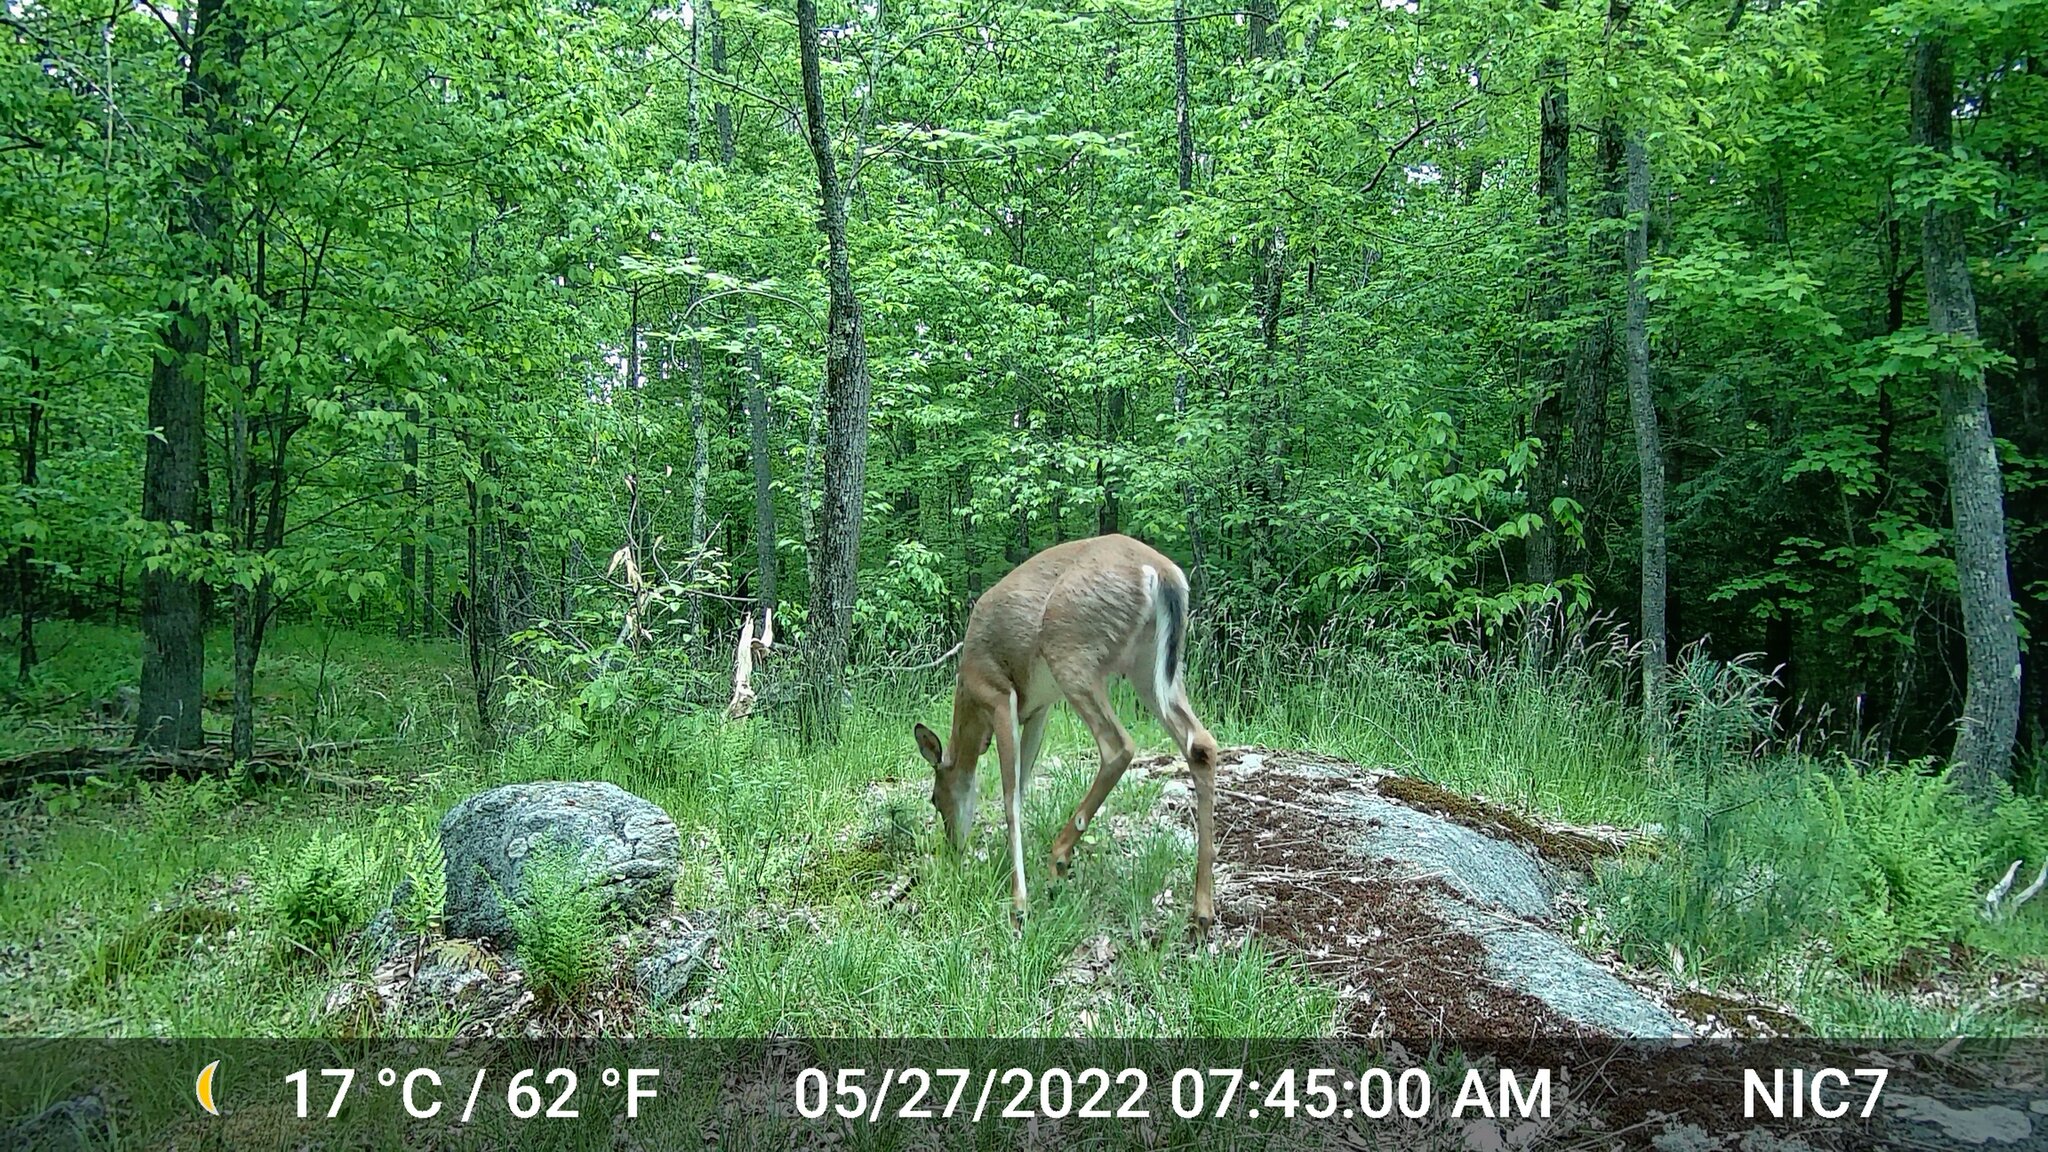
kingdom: Animalia
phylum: Chordata
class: Mammalia
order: Artiodactyla
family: Cervidae
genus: Odocoileus
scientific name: Odocoileus virginianus
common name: White-tailed deer
